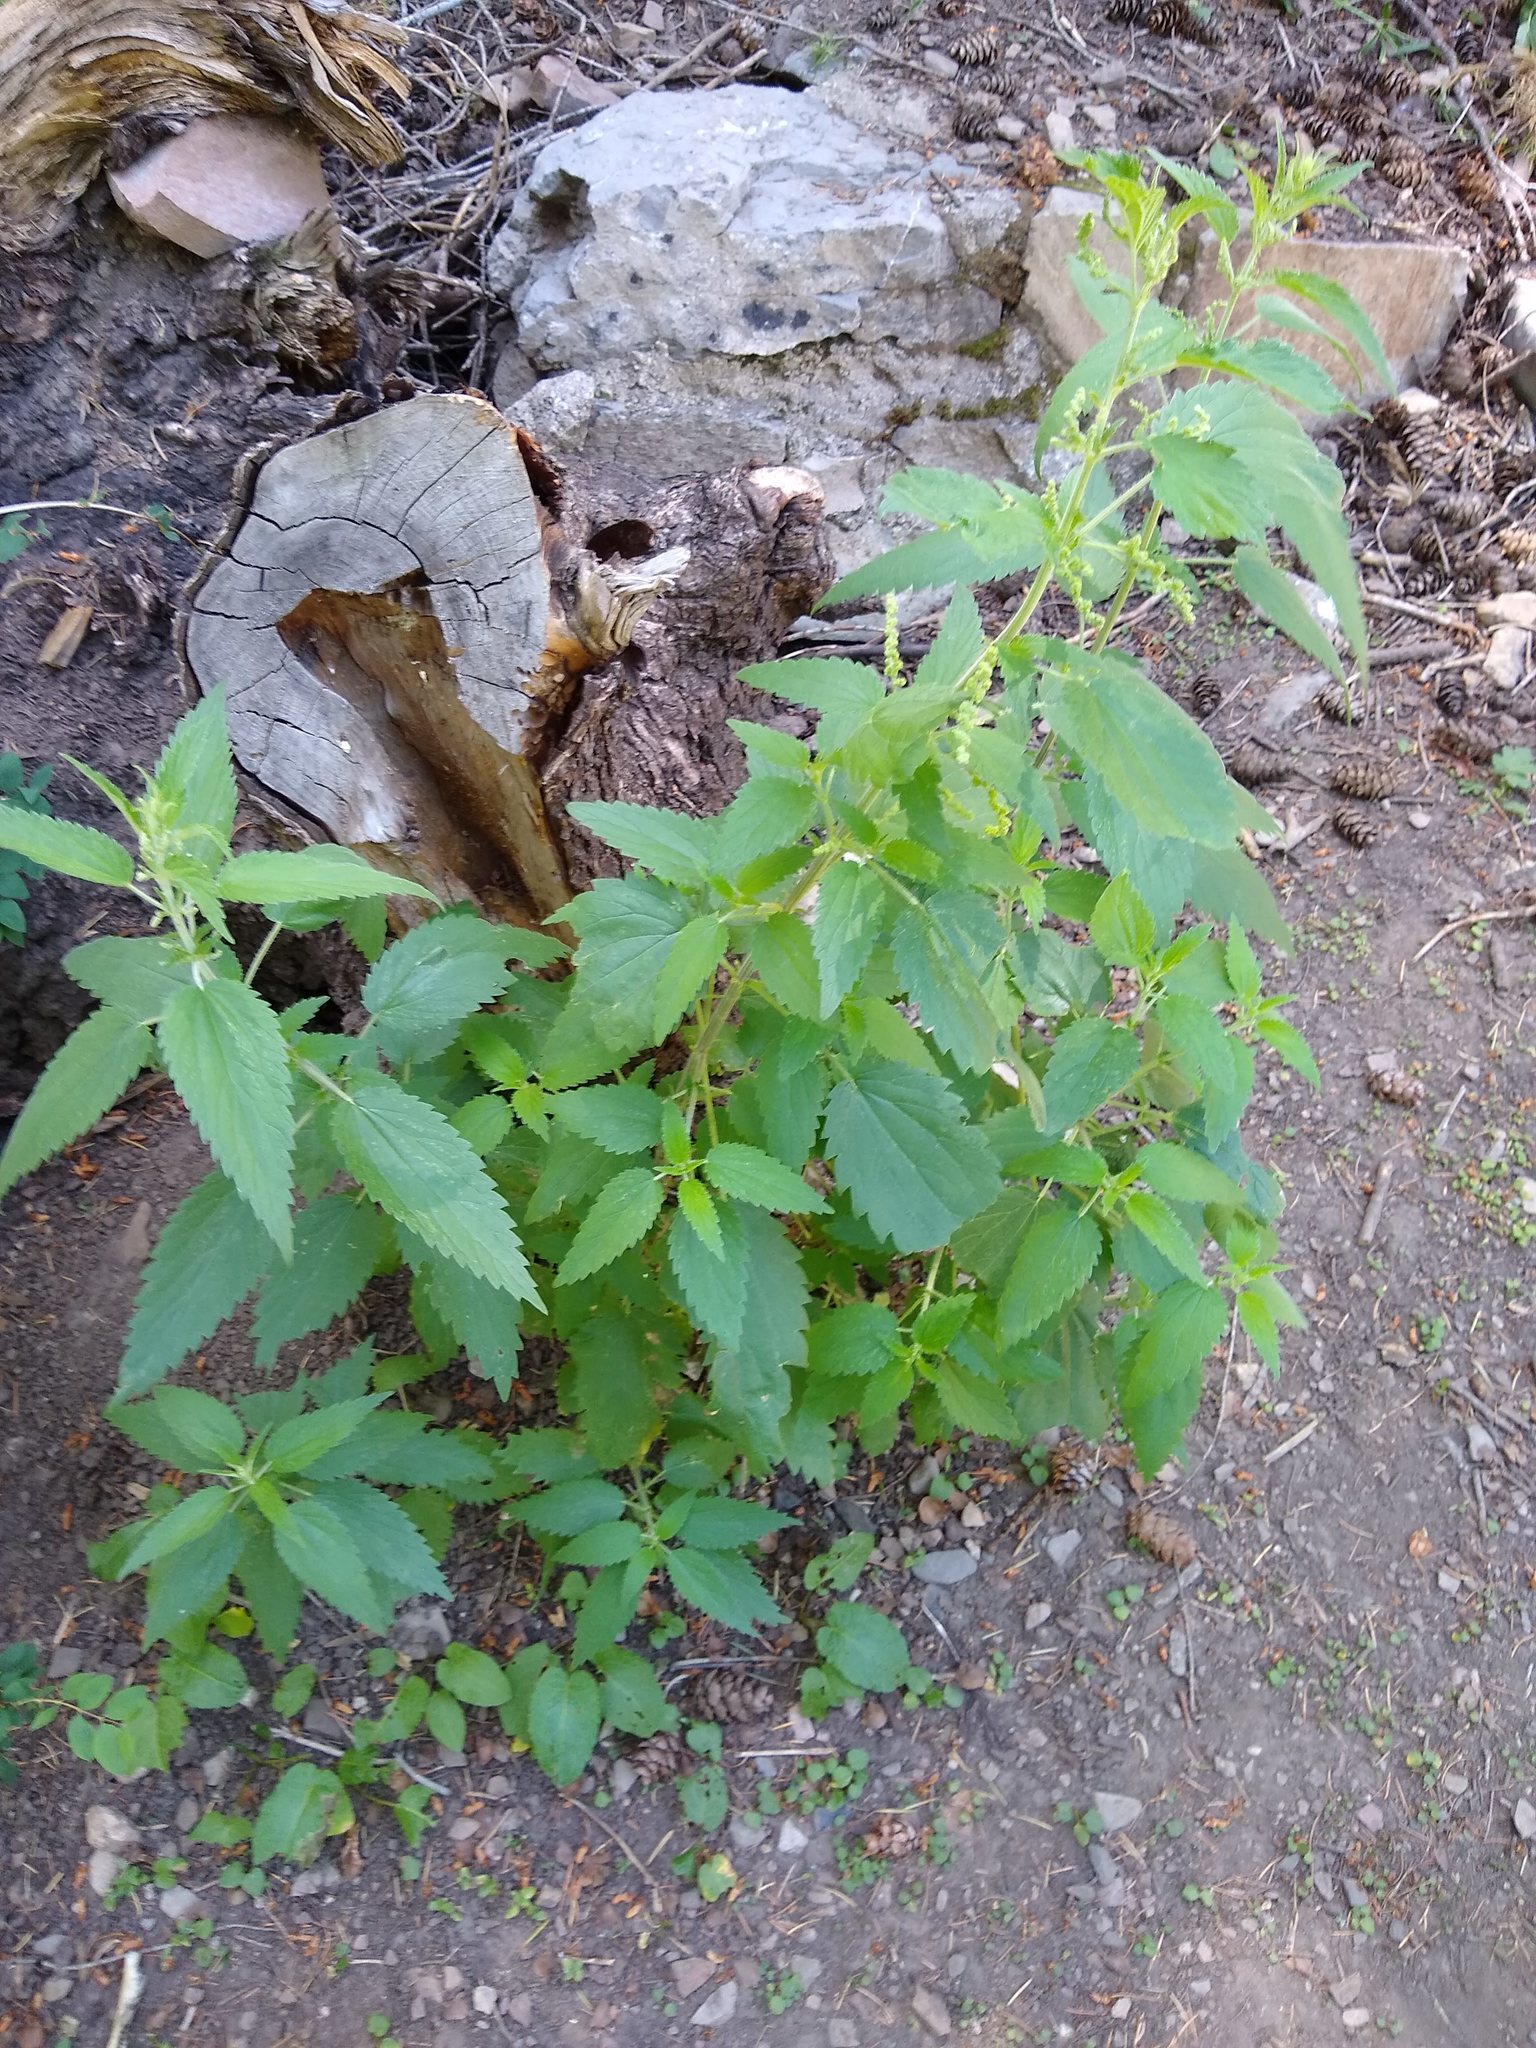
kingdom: Plantae
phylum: Tracheophyta
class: Magnoliopsida
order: Rosales
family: Urticaceae
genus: Urtica
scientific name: Urtica dioica
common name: Common nettle
